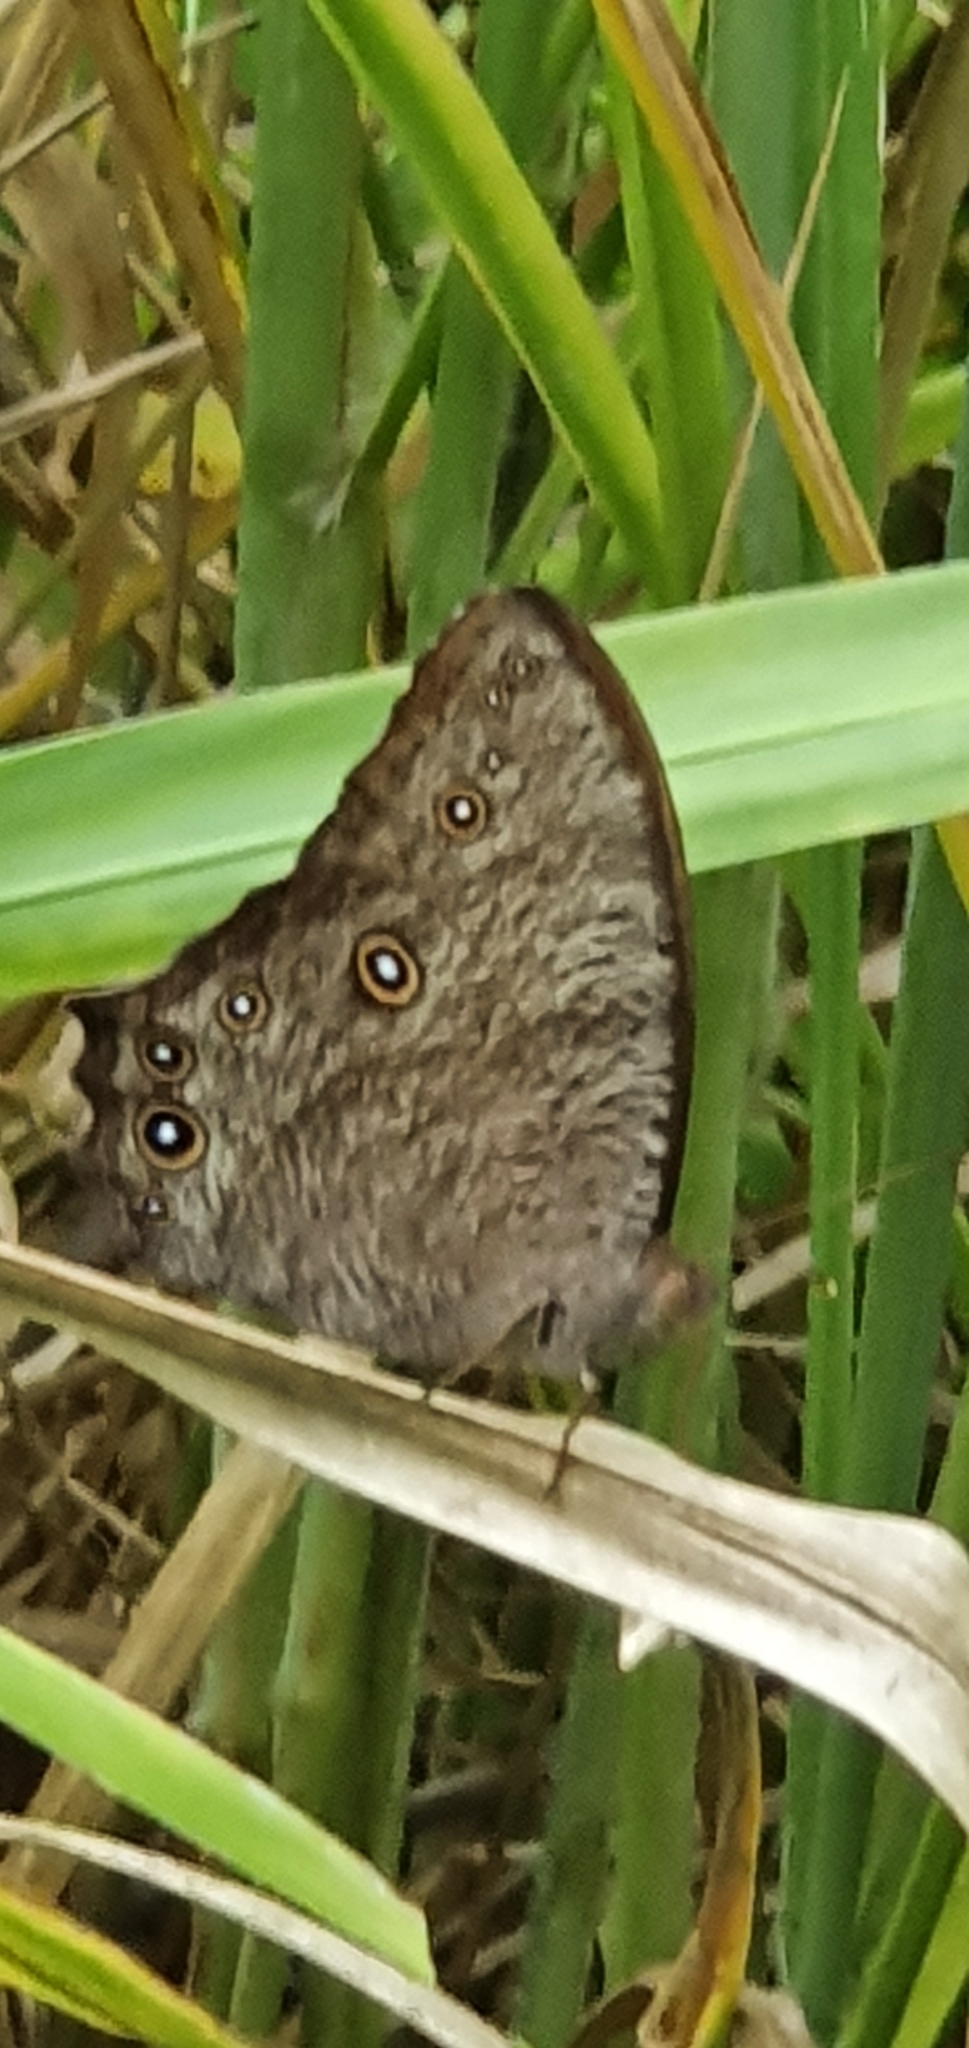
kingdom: Animalia
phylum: Arthropoda
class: Insecta
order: Lepidoptera
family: Nymphalidae
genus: Melanitis
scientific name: Melanitis leda
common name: Twilight brown
